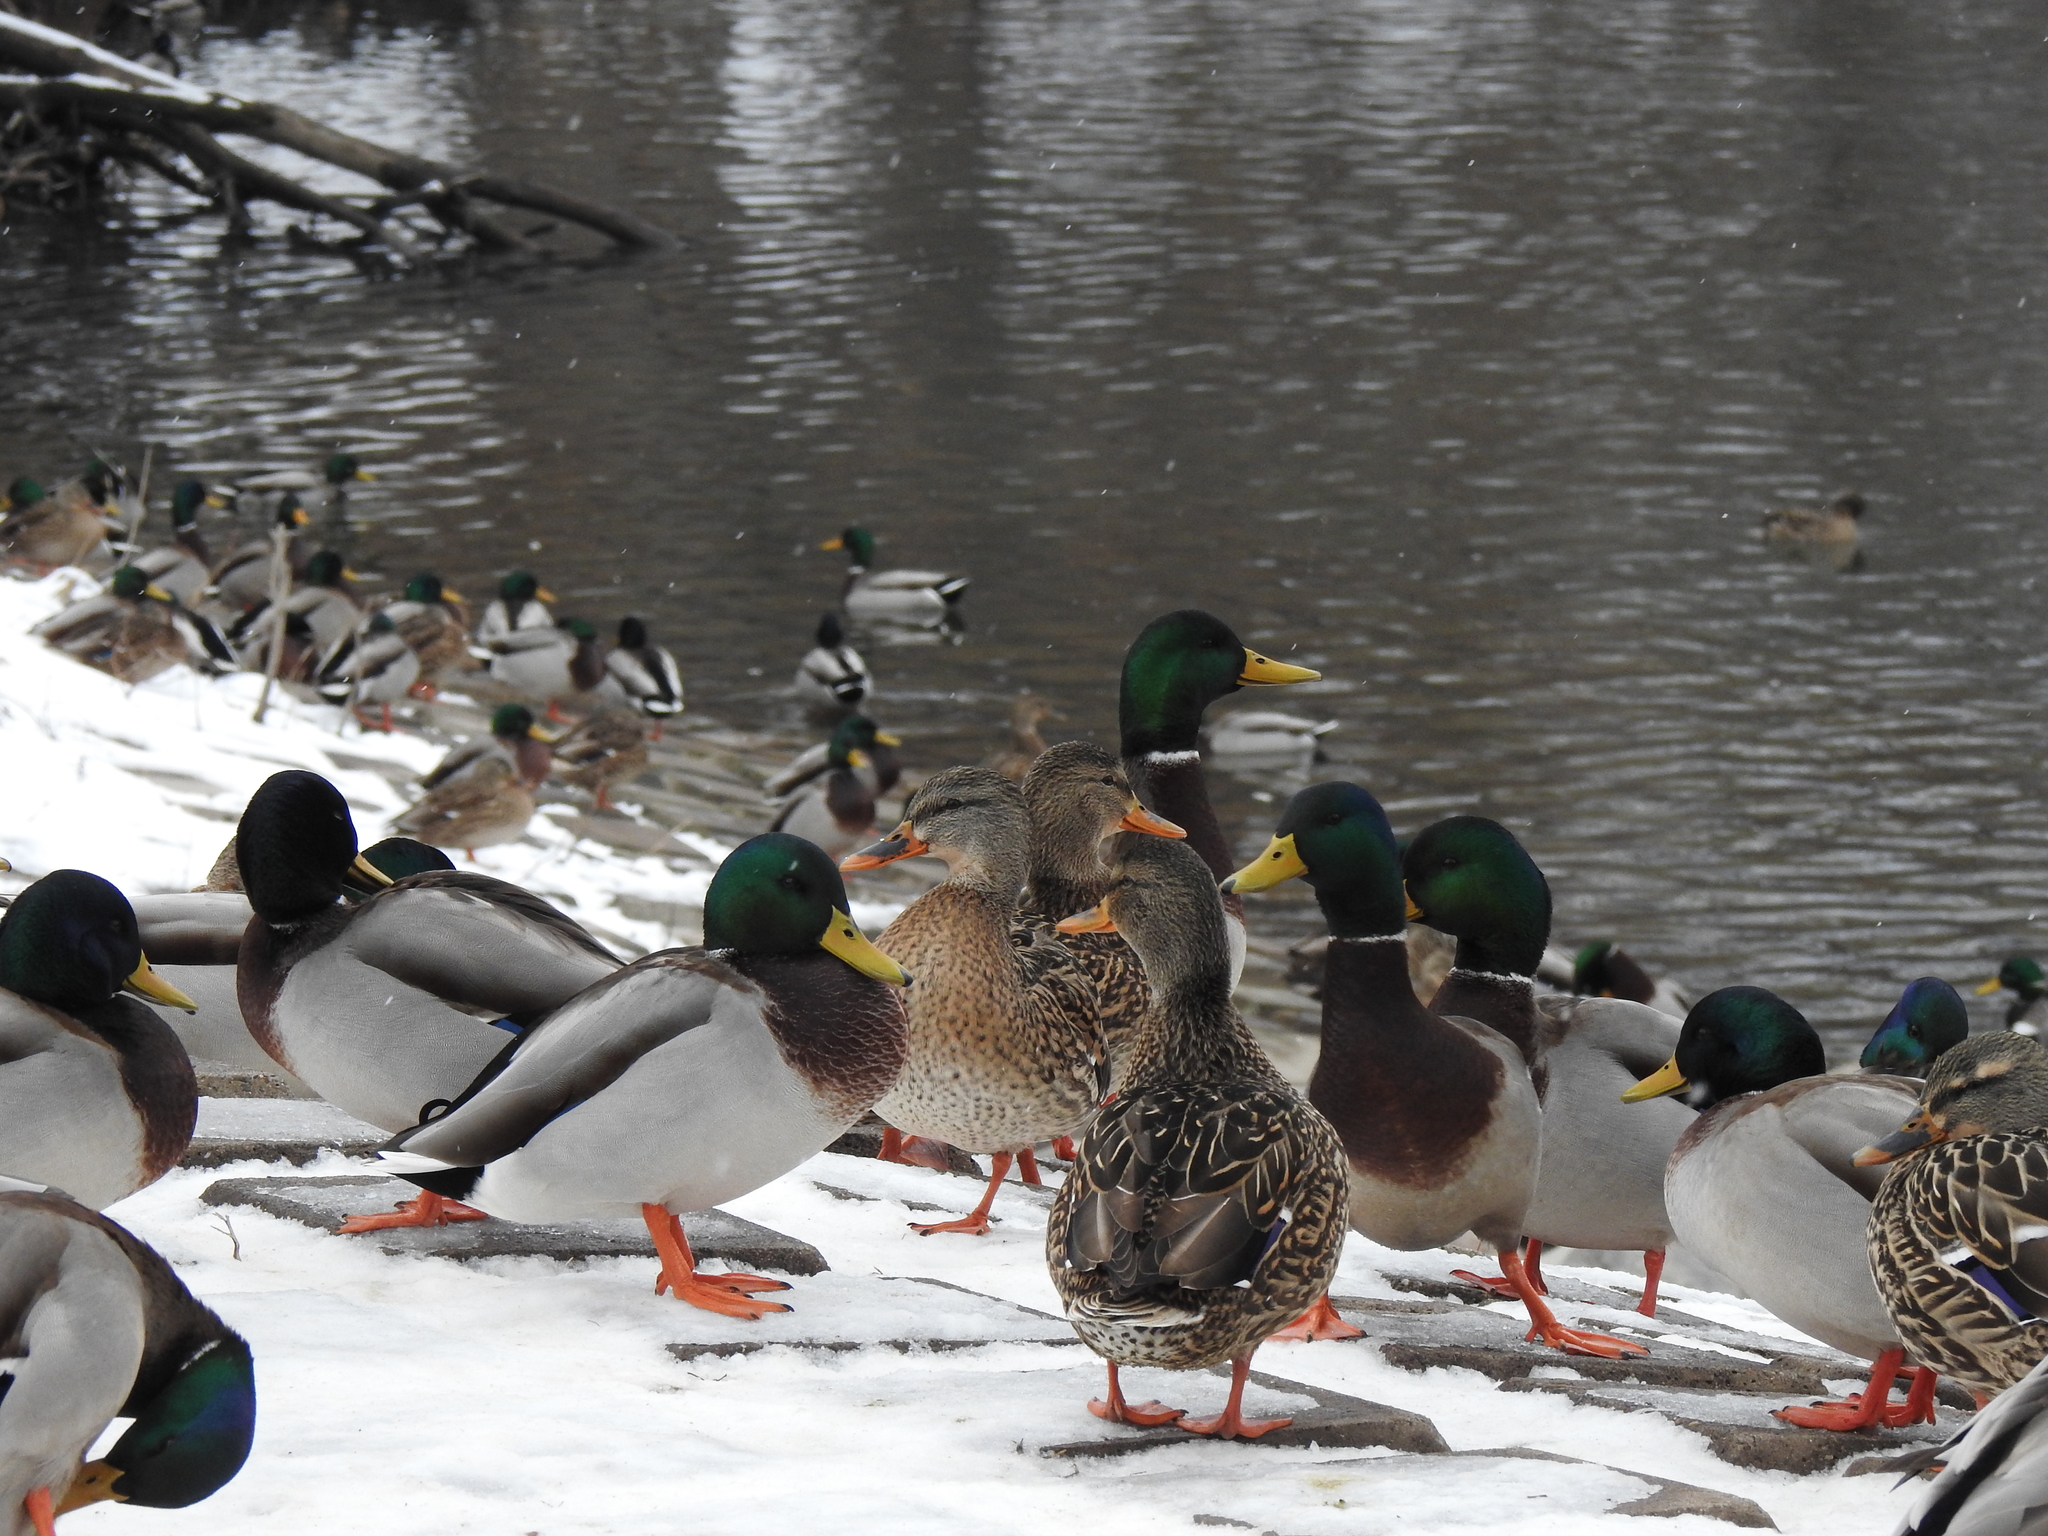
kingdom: Animalia
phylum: Chordata
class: Aves
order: Anseriformes
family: Anatidae
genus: Anas
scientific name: Anas platyrhynchos
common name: Mallard
